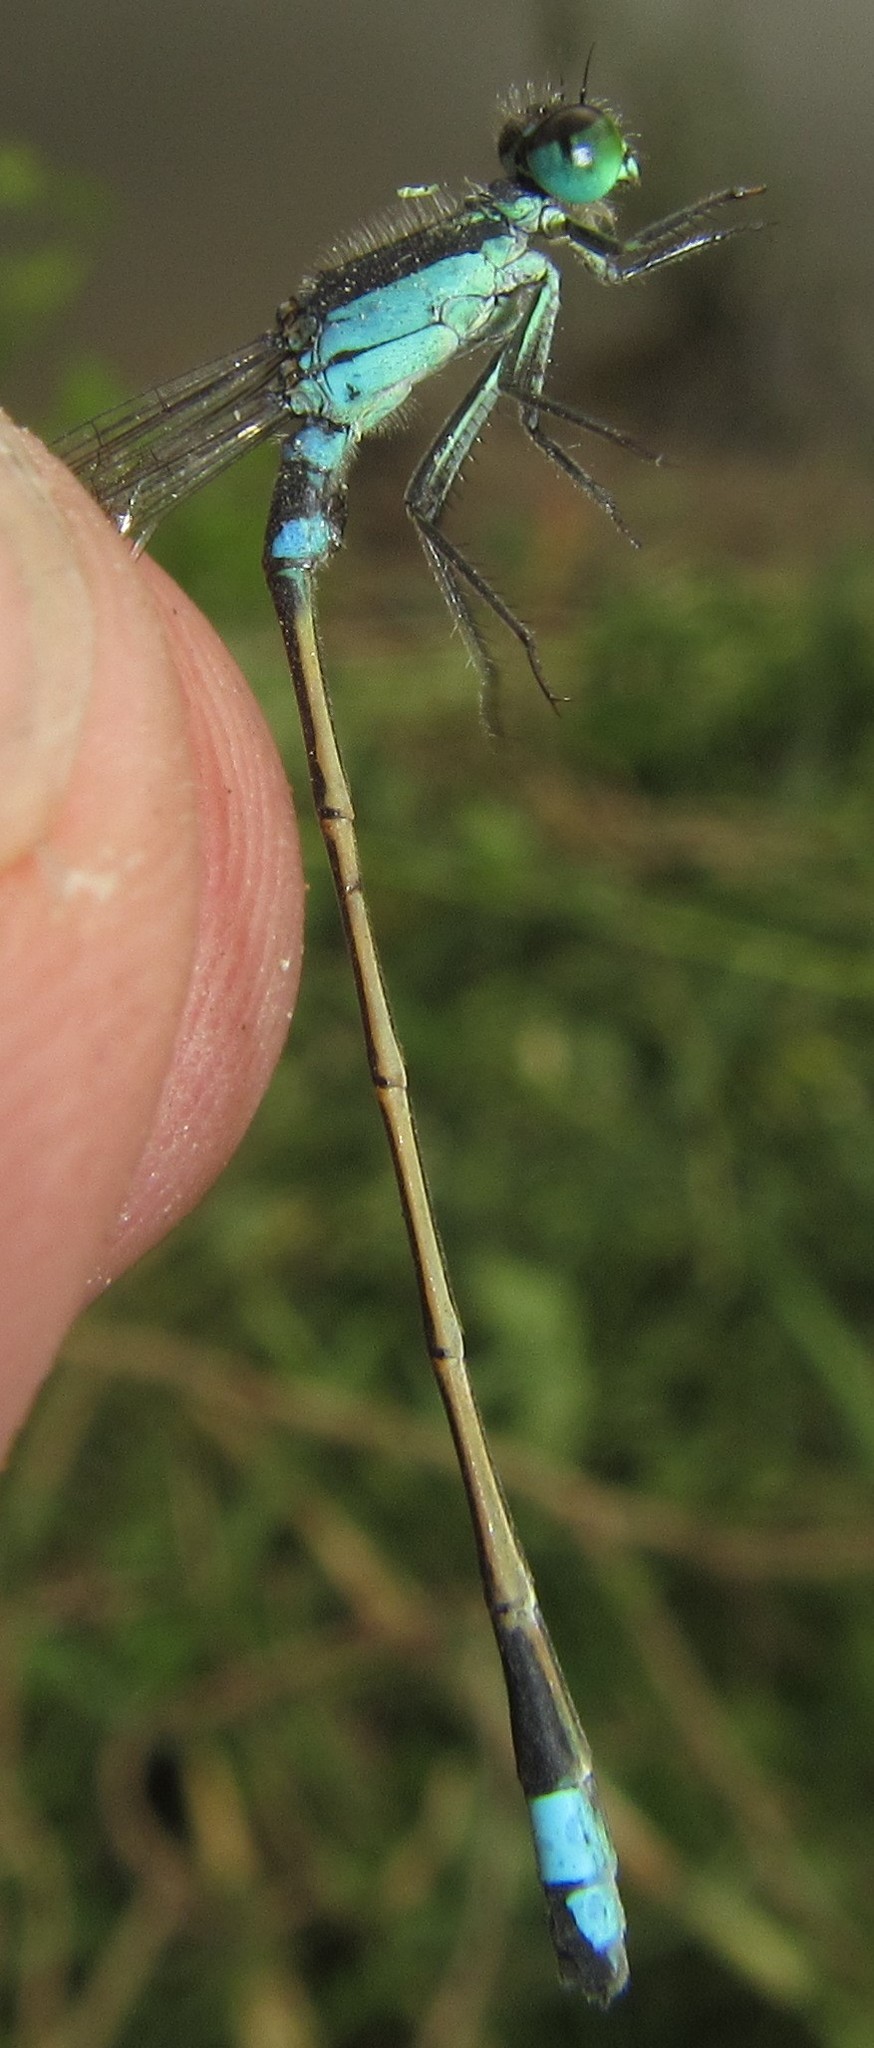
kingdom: Animalia
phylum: Arthropoda
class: Insecta
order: Odonata
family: Coenagrionidae
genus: Ischnura
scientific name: Ischnura senegalensis
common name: Tropical bluetail
